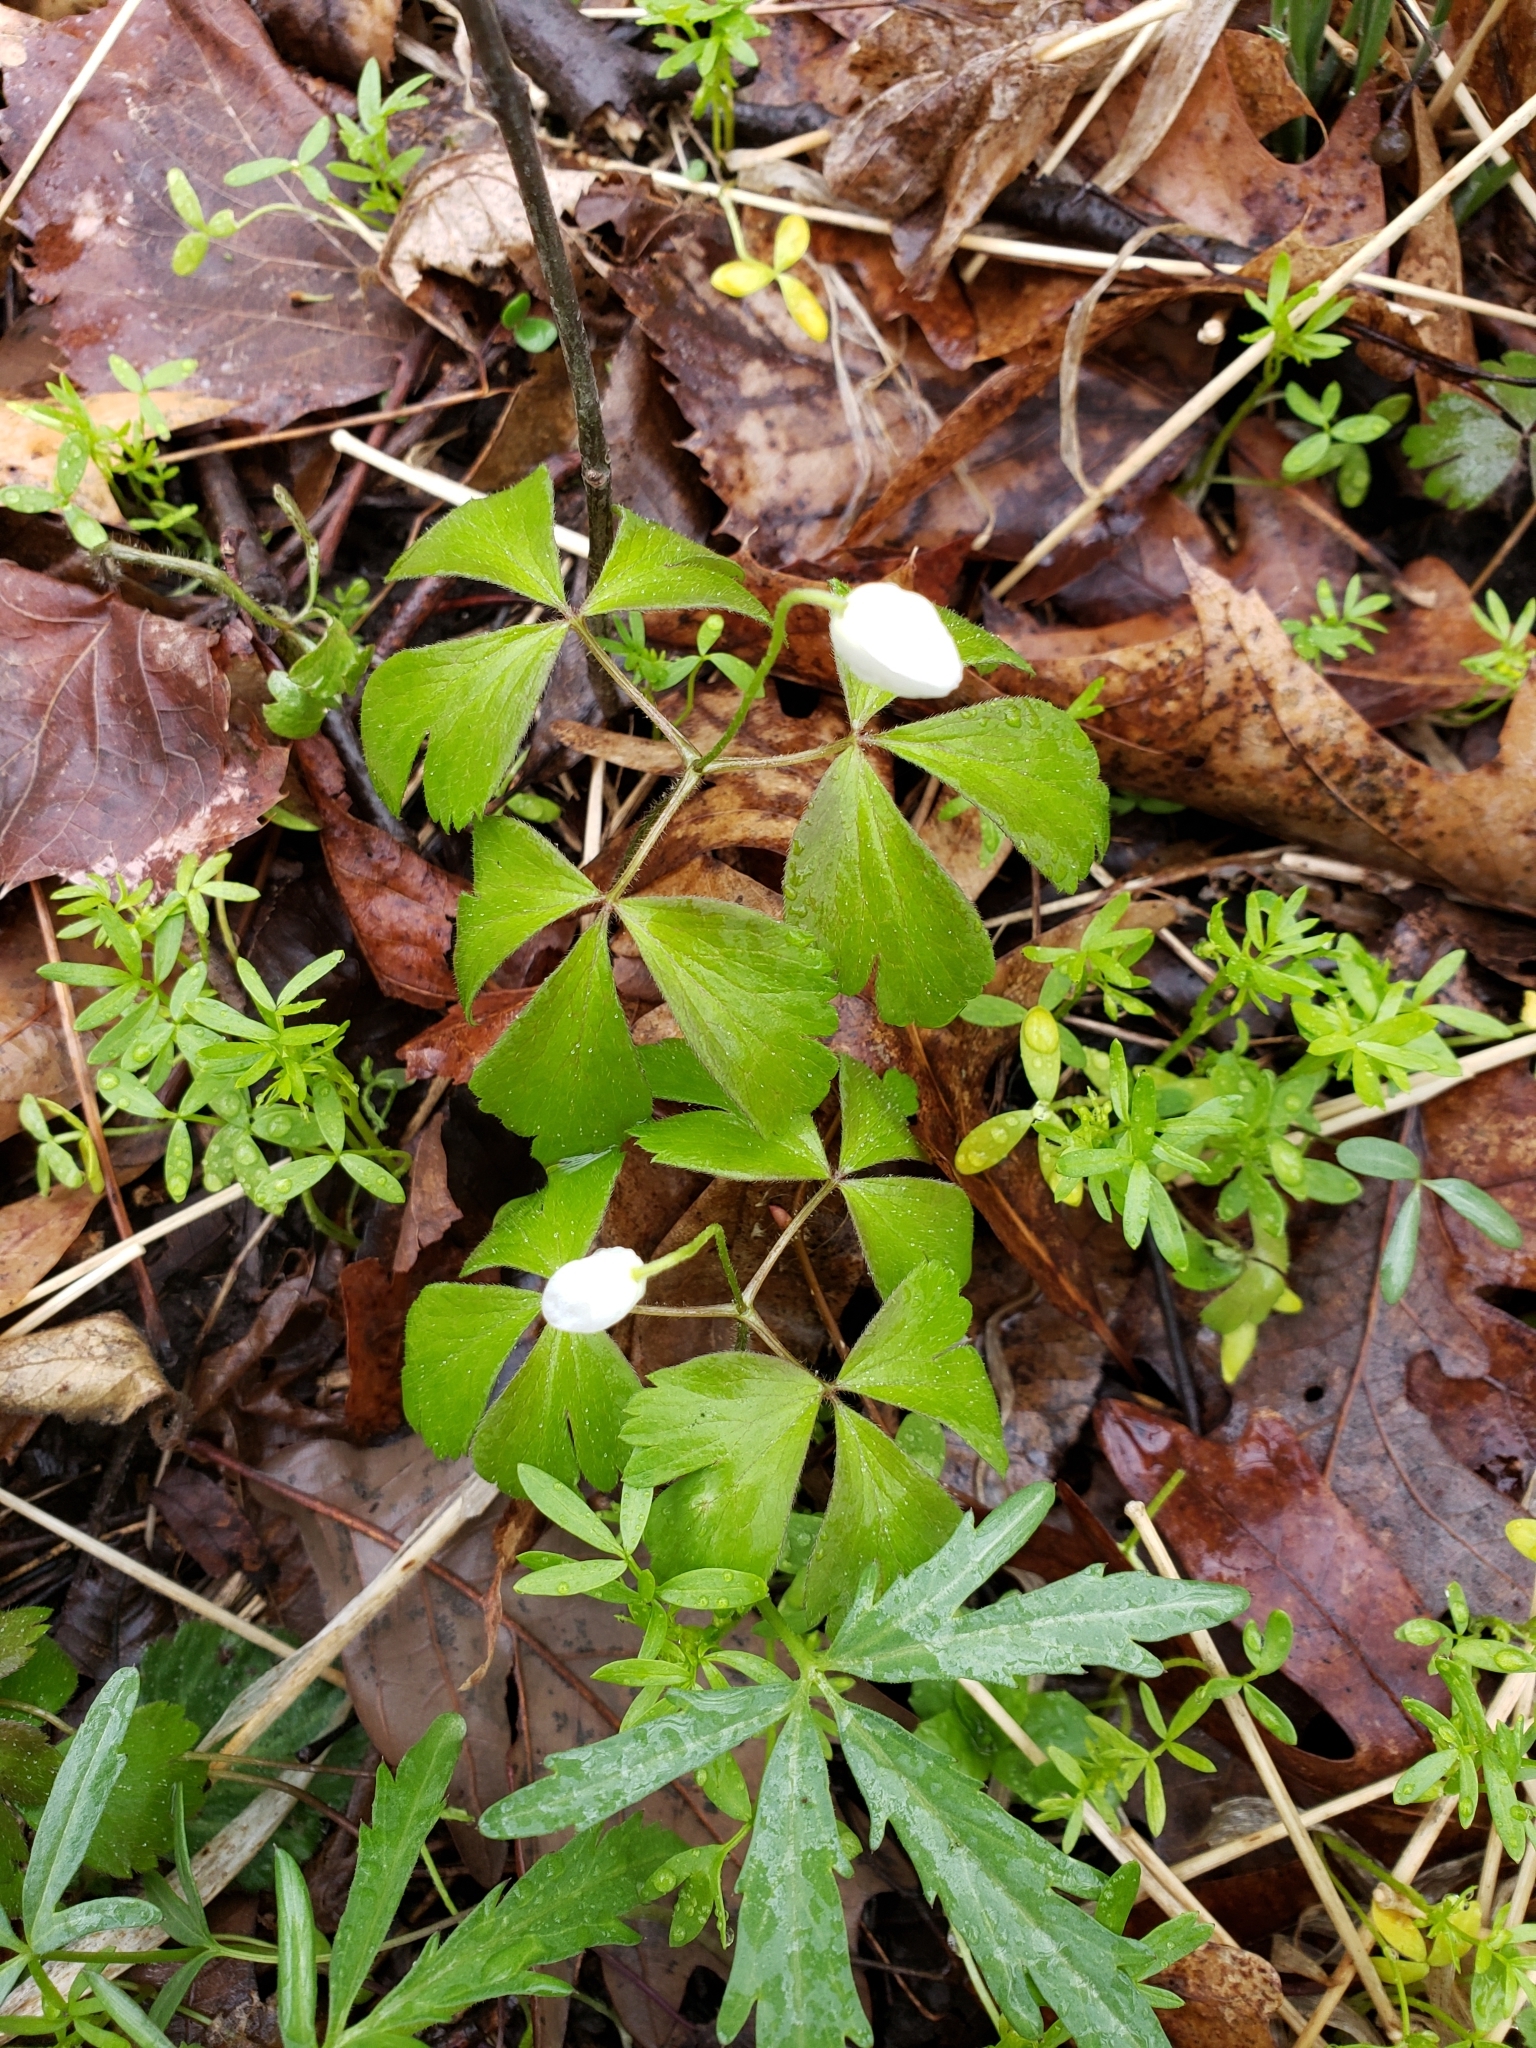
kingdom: Plantae
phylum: Tracheophyta
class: Magnoliopsida
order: Ranunculales
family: Ranunculaceae
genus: Anemone
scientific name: Anemone quinquefolia
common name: Wood anemone
